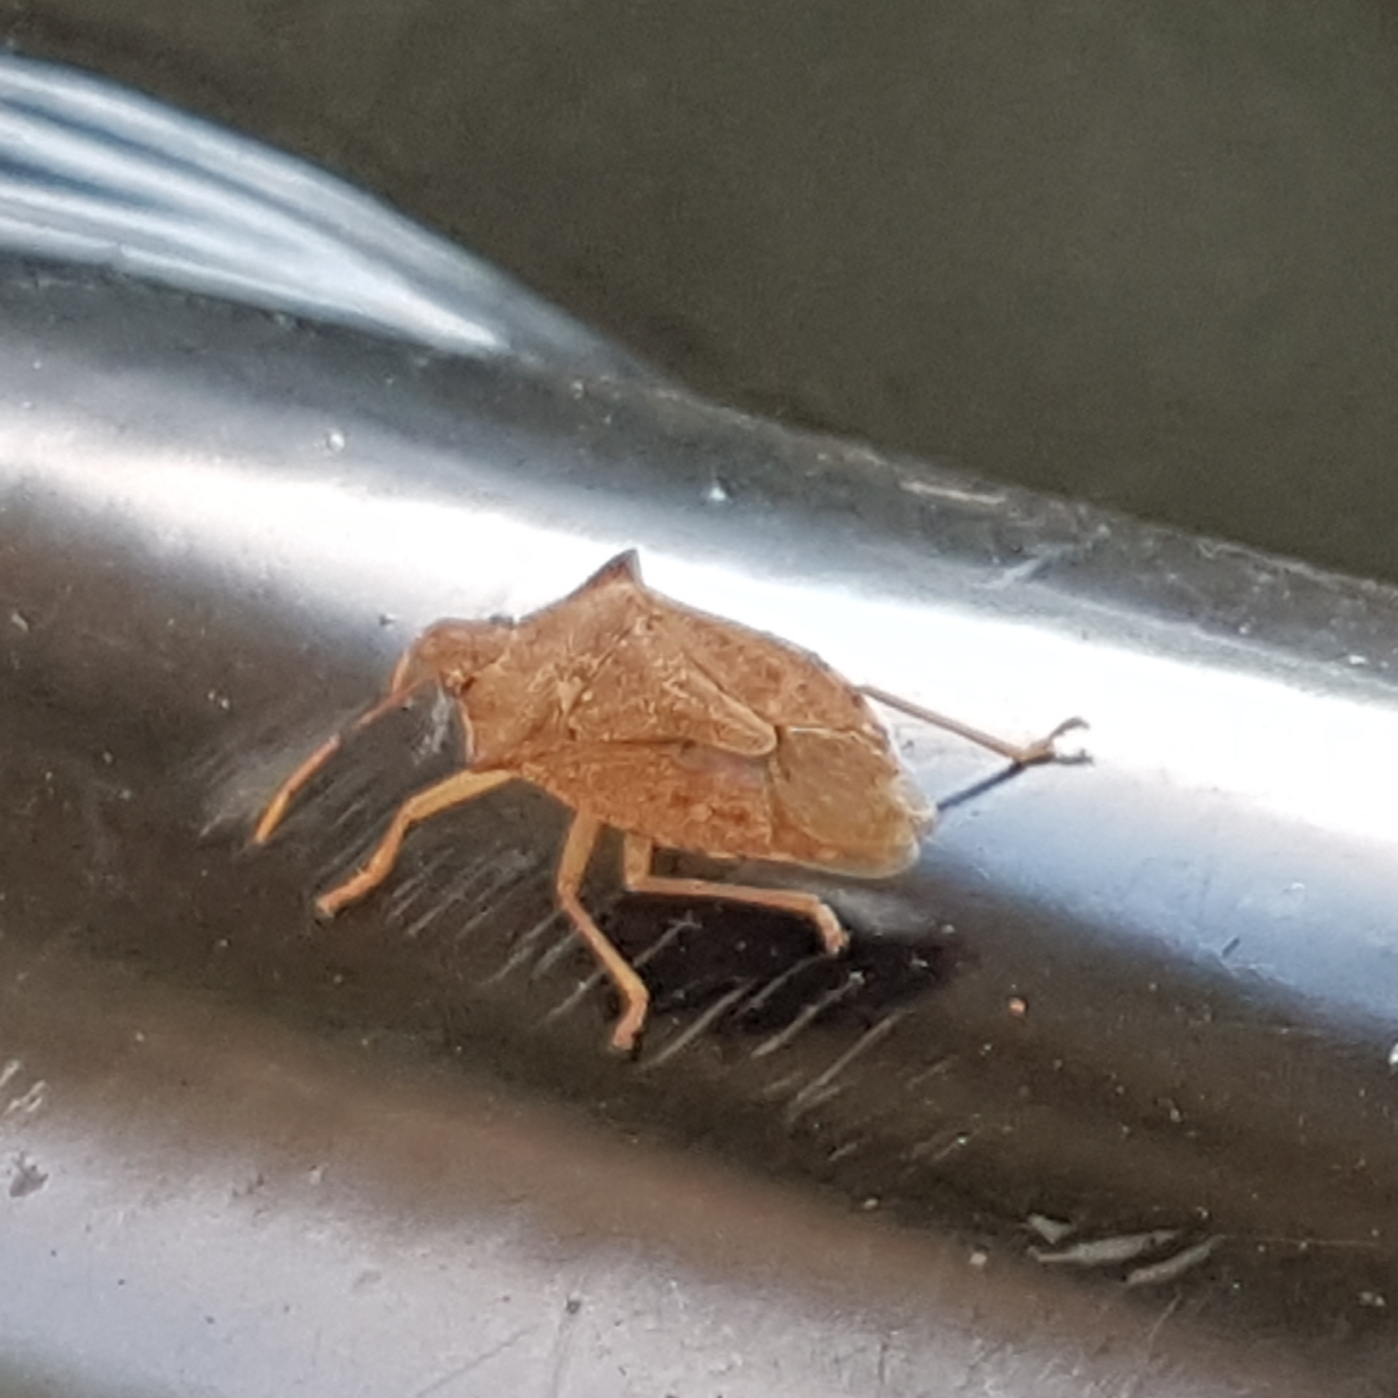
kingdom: Animalia
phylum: Arthropoda
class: Insecta
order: Hemiptera
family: Pentatomidae
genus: Arma
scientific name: Arma custos
